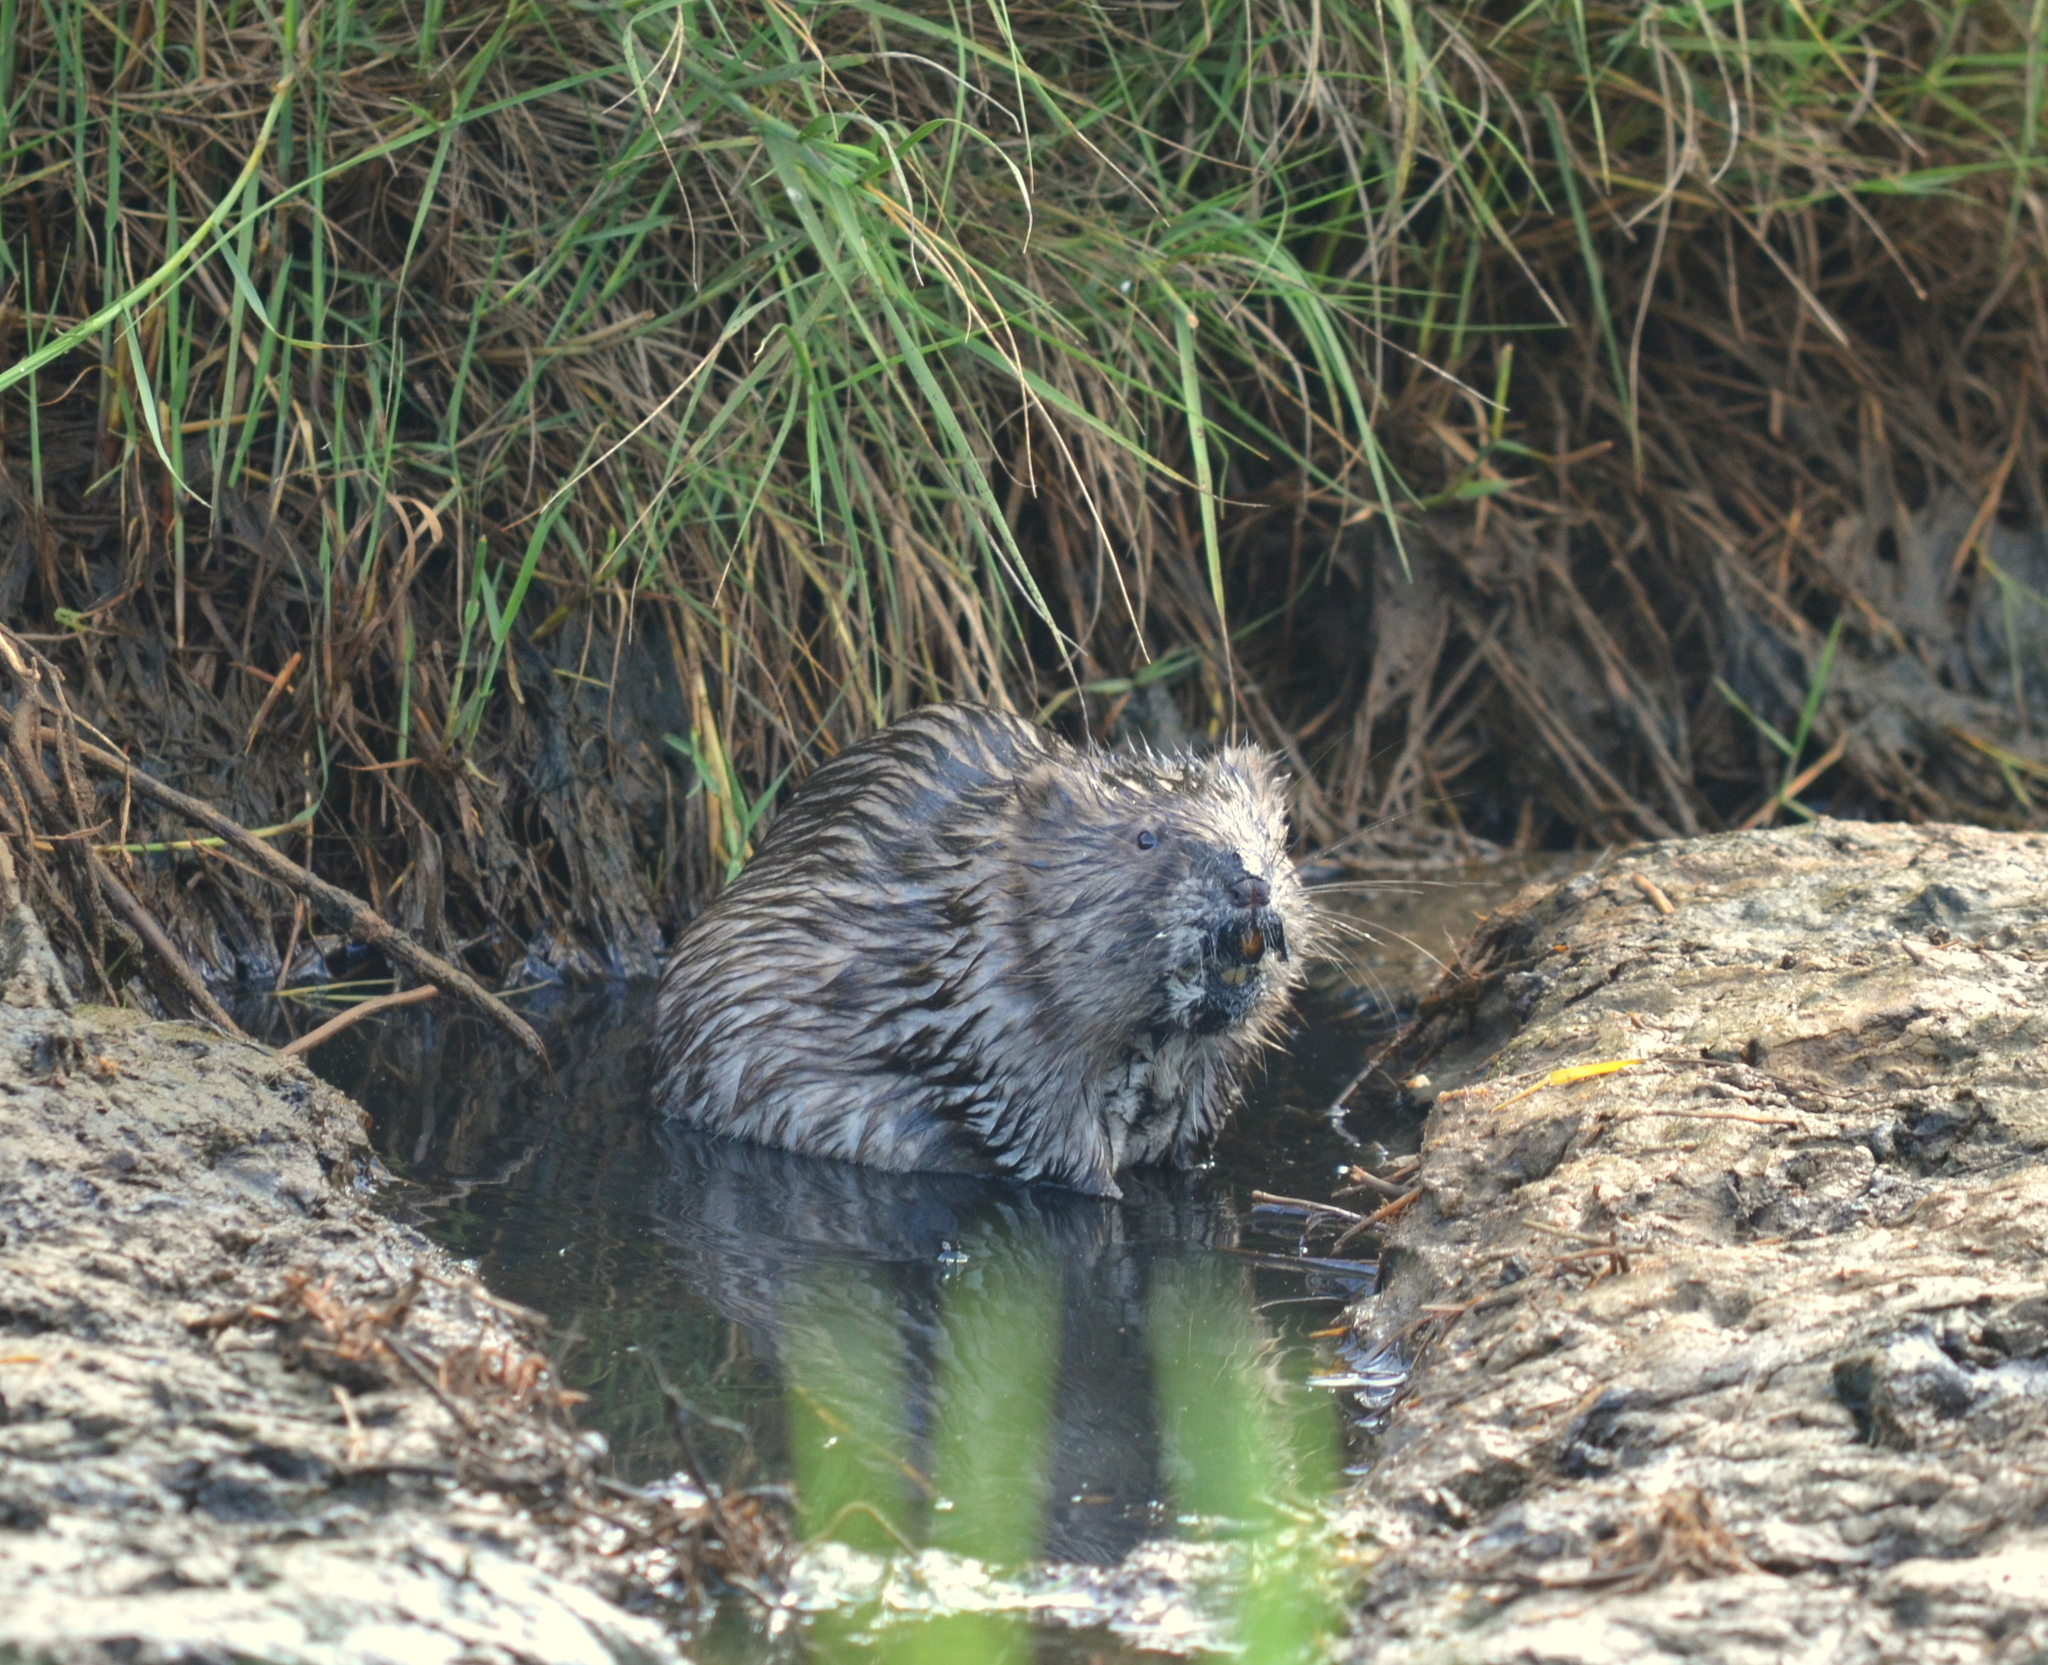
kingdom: Animalia
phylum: Chordata
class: Mammalia
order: Rodentia
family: Cricetidae
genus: Ondatra
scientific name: Ondatra zibethicus
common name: Muskrat
